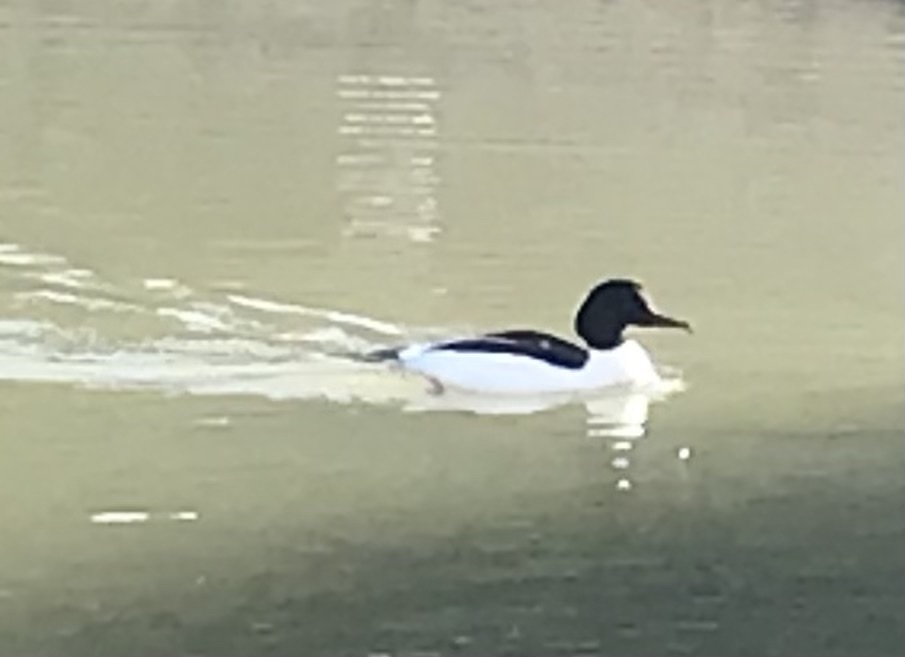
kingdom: Animalia
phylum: Chordata
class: Aves
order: Anseriformes
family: Anatidae
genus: Mergus
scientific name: Mergus merganser
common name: Common merganser
